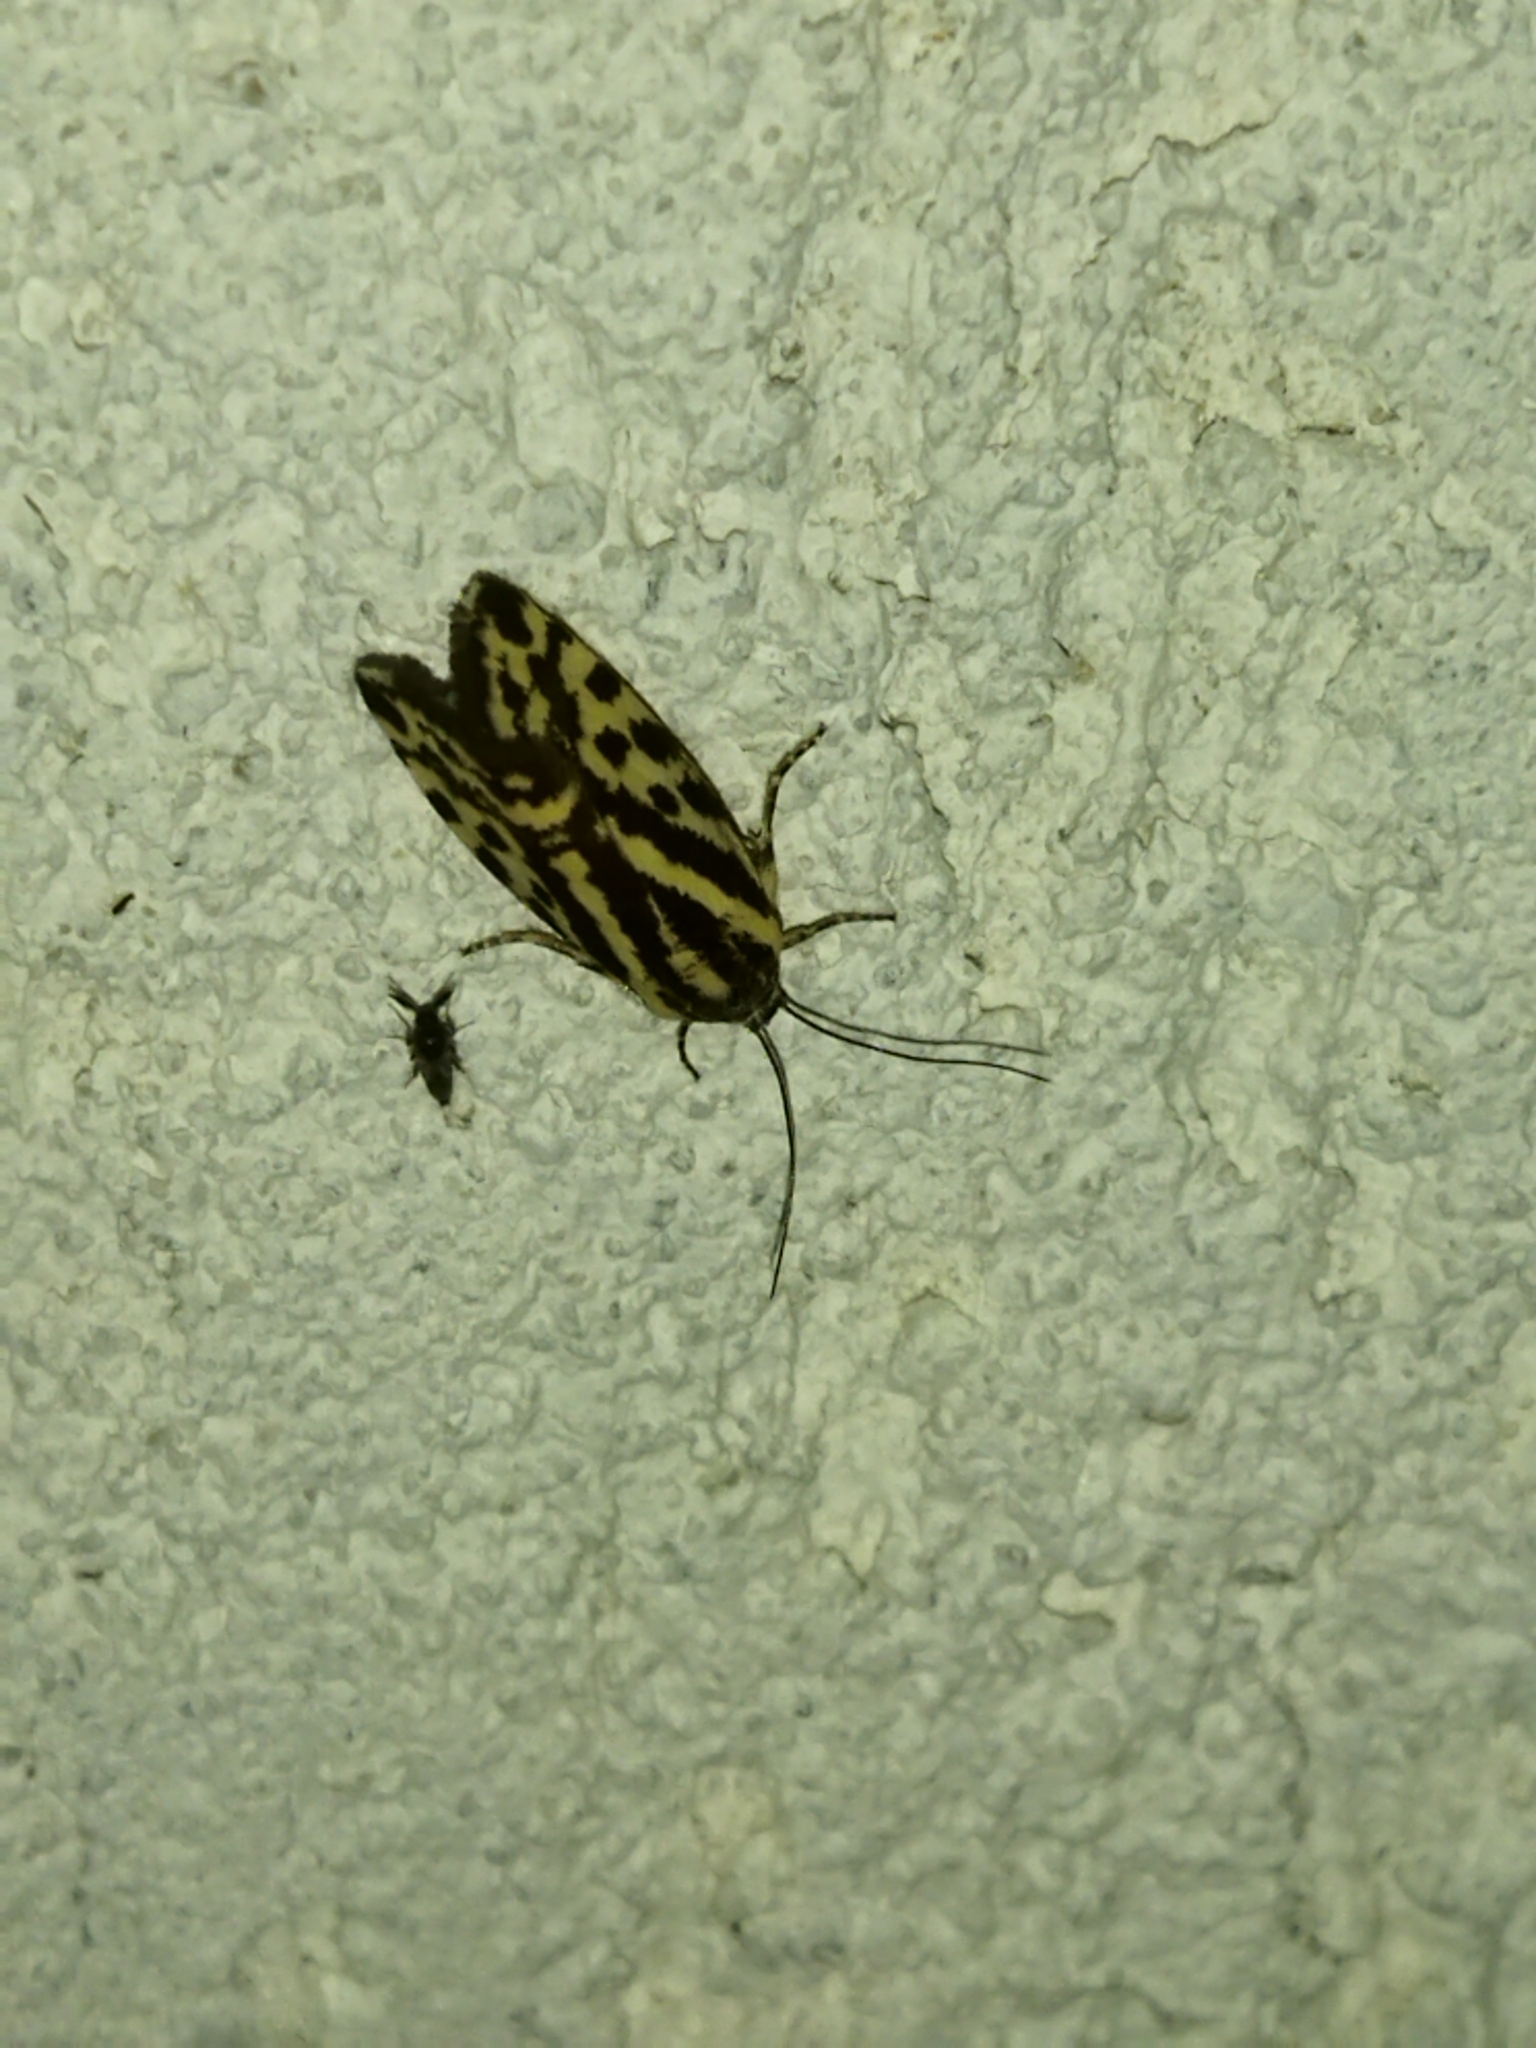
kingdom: Animalia
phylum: Arthropoda
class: Insecta
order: Lepidoptera
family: Noctuidae
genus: Acontia
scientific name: Acontia trabealis
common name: Spotted sulphur
